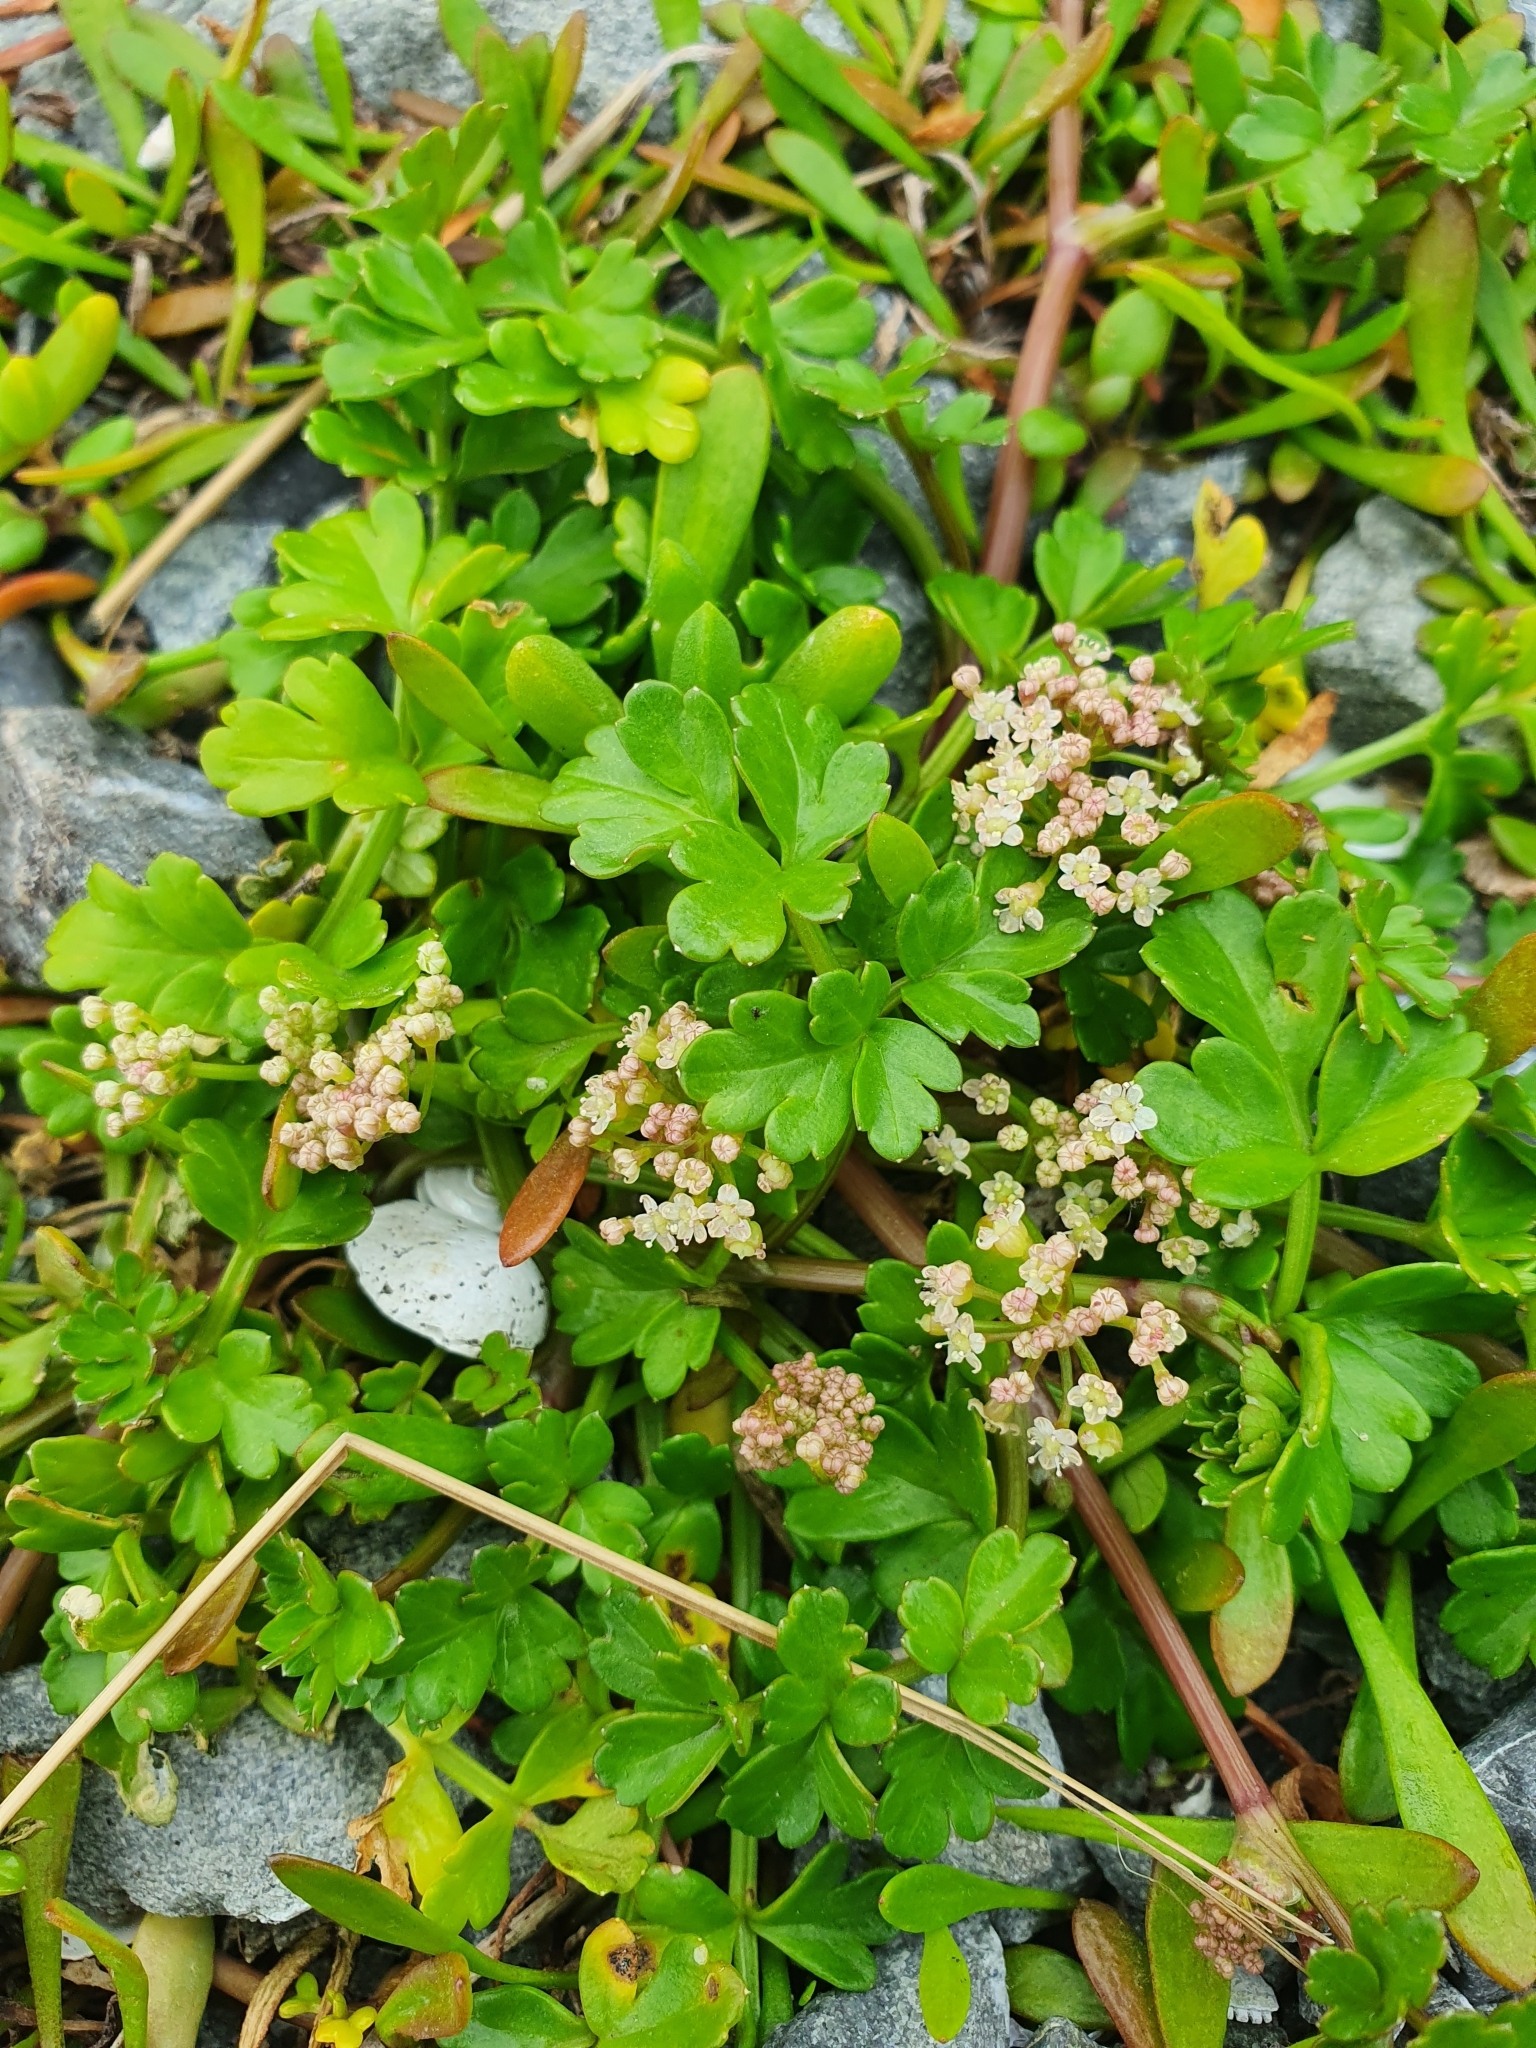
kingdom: Plantae
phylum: Tracheophyta
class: Magnoliopsida
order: Apiales
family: Apiaceae
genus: Apium
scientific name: Apium prostratum
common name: Prostrate marshwort
